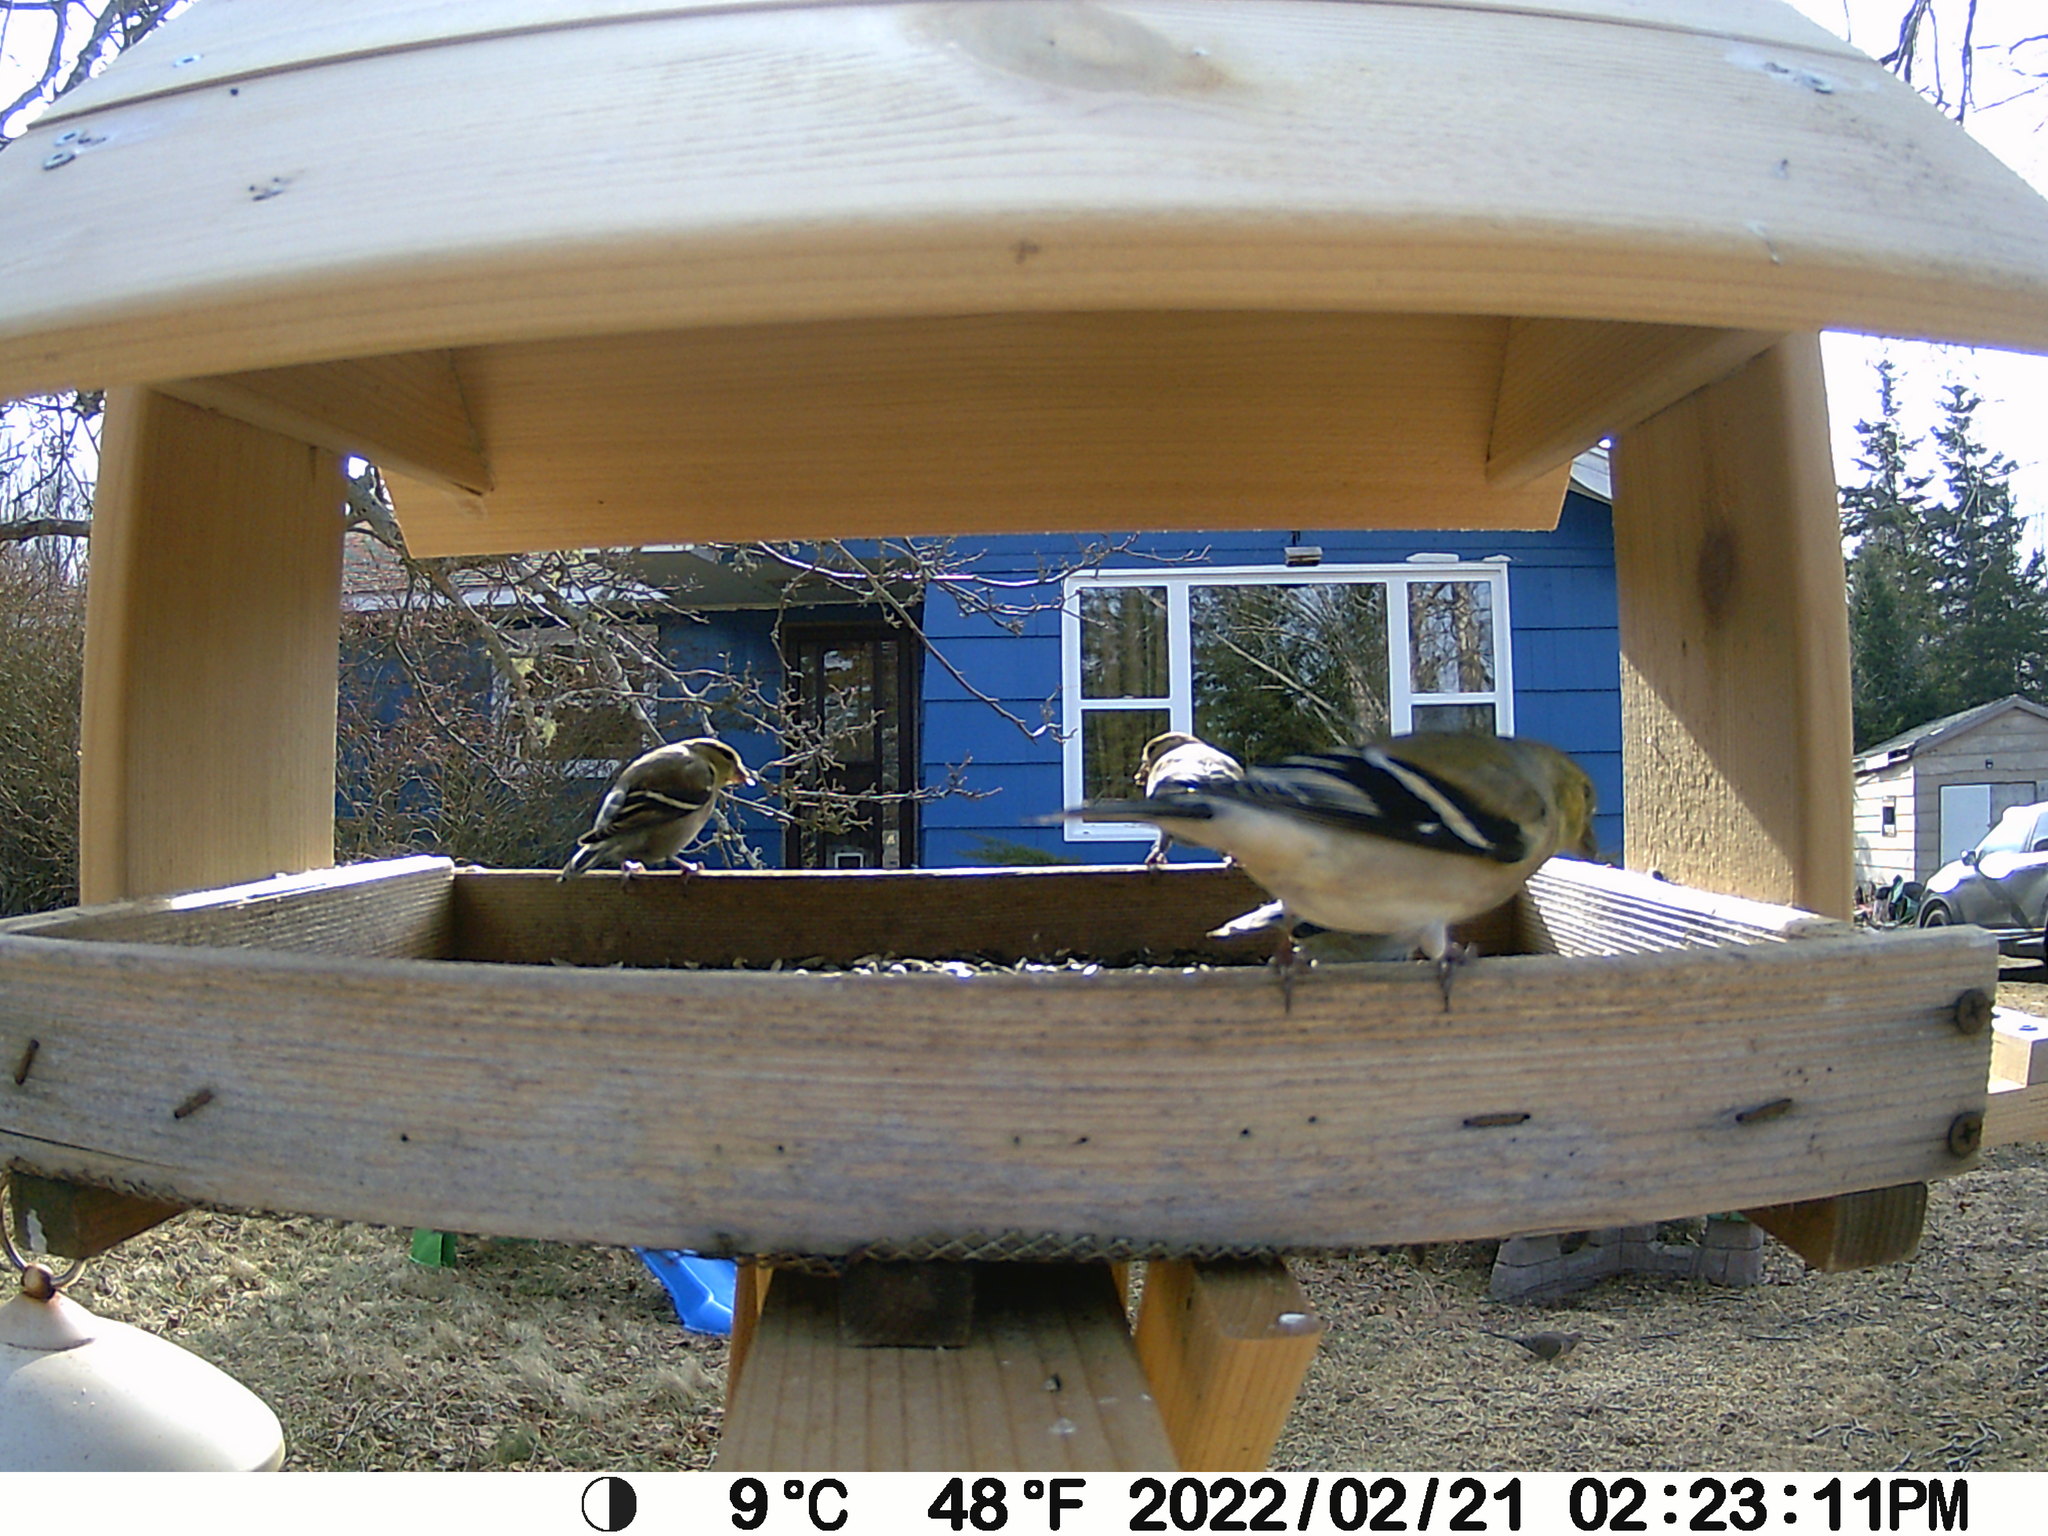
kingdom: Animalia
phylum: Chordata
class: Aves
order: Columbiformes
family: Columbidae
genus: Zenaida
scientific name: Zenaida macroura
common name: Mourning dove
